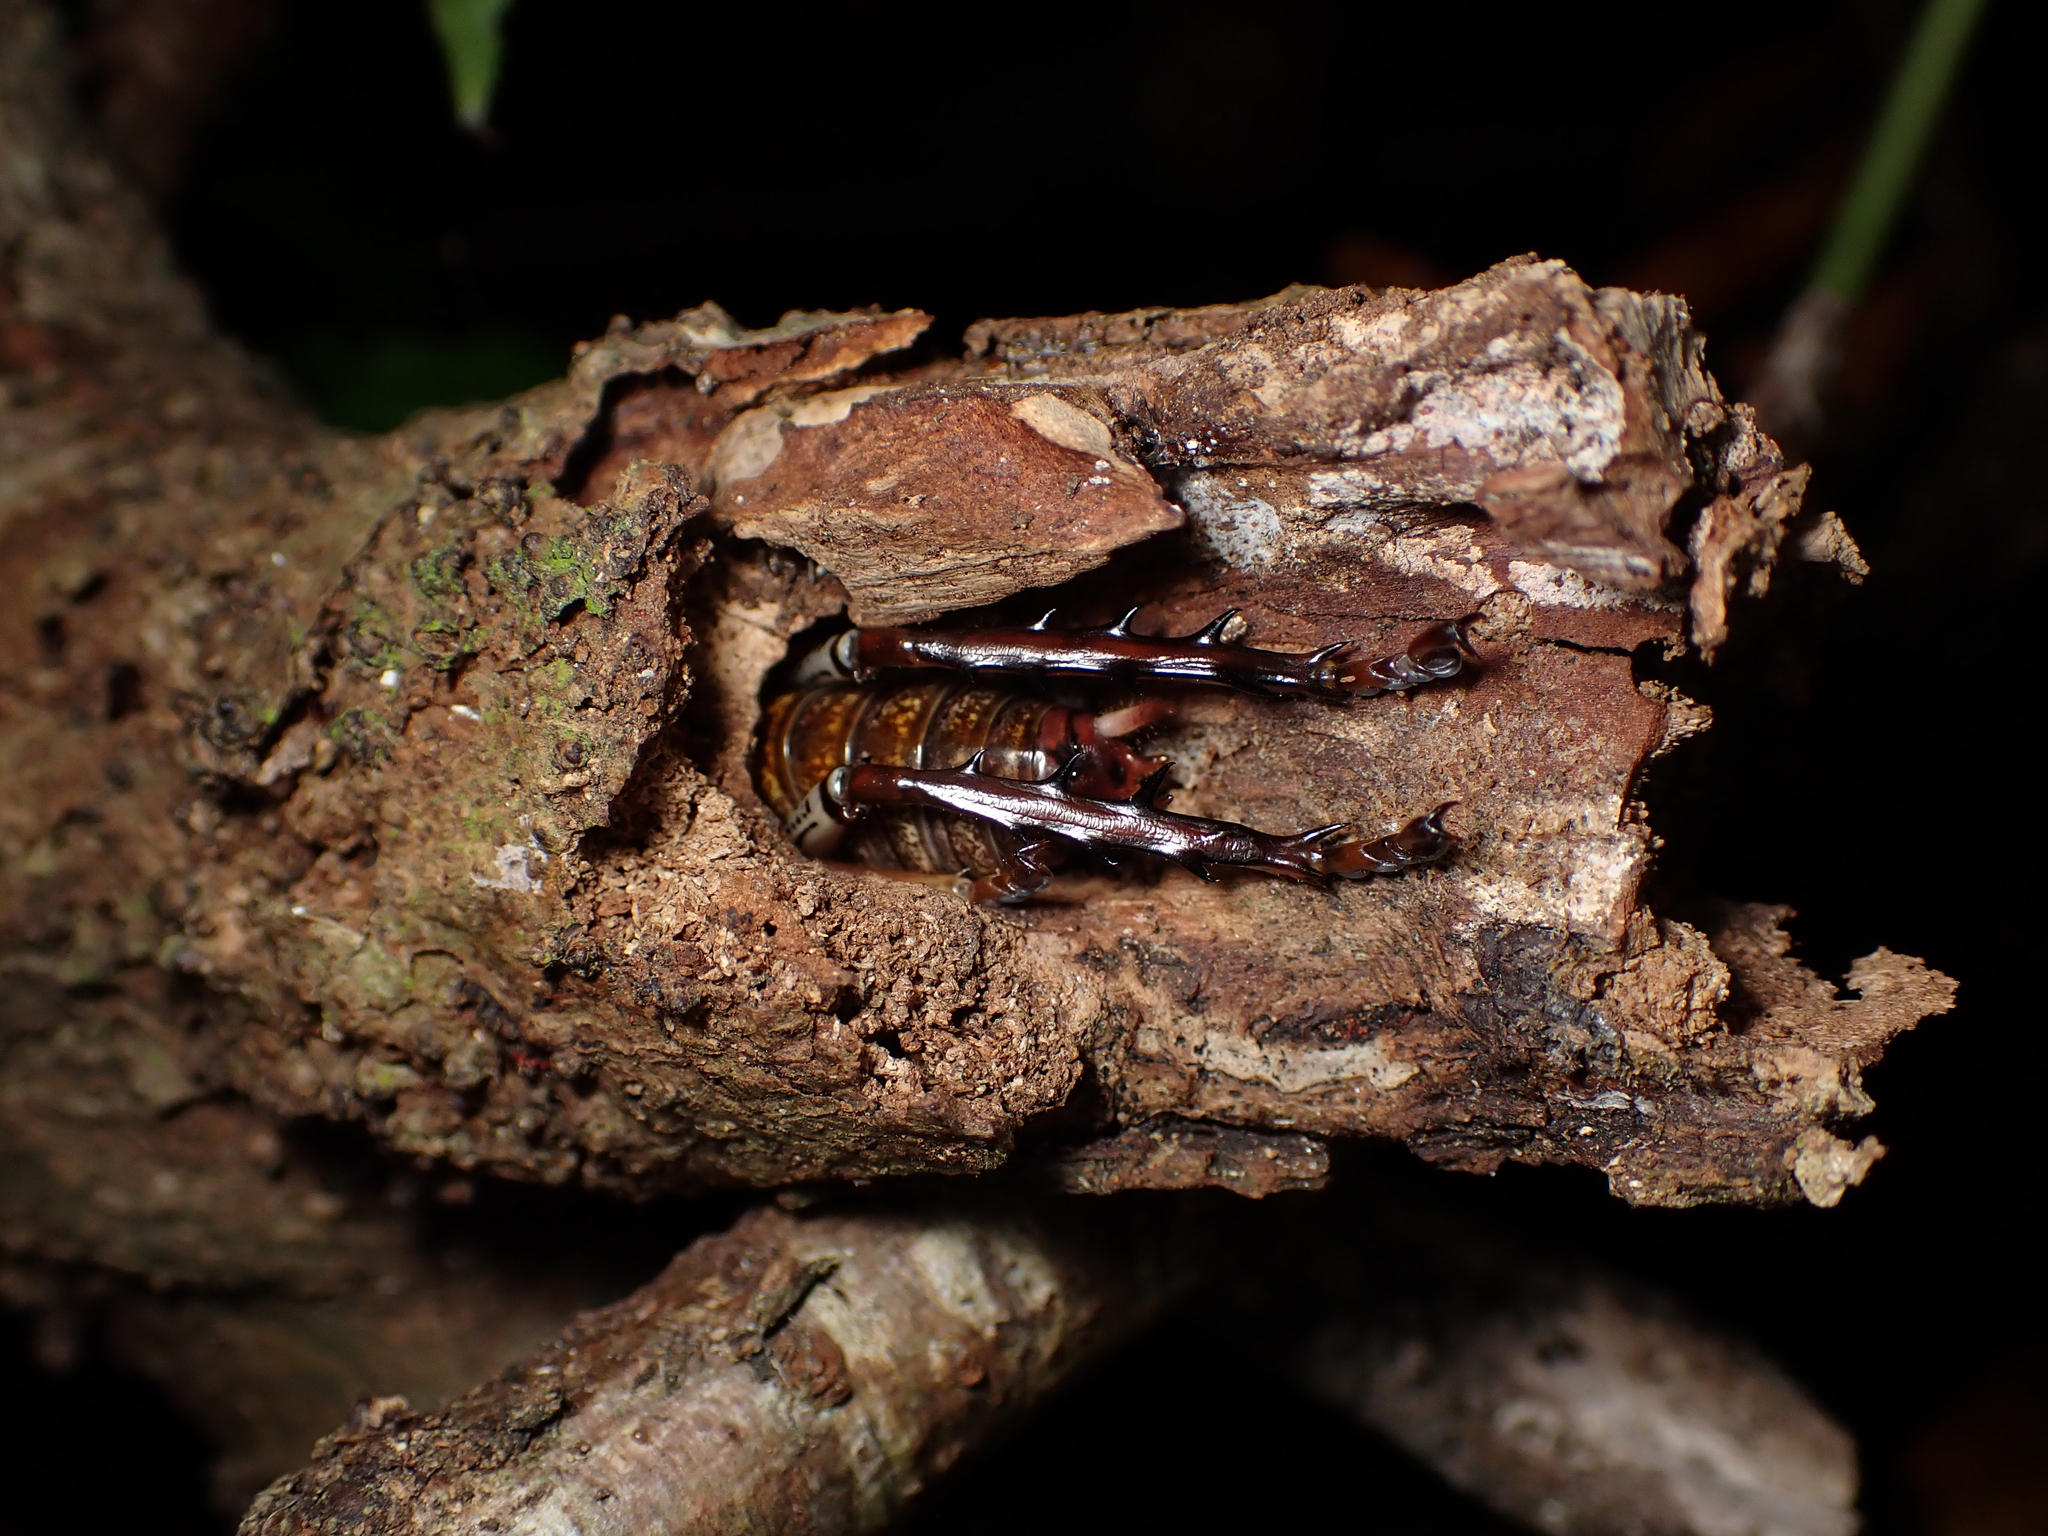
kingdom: Animalia
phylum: Arthropoda
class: Insecta
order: Orthoptera
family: Anostostomatidae
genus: Hemideina
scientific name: Hemideina thoracica
